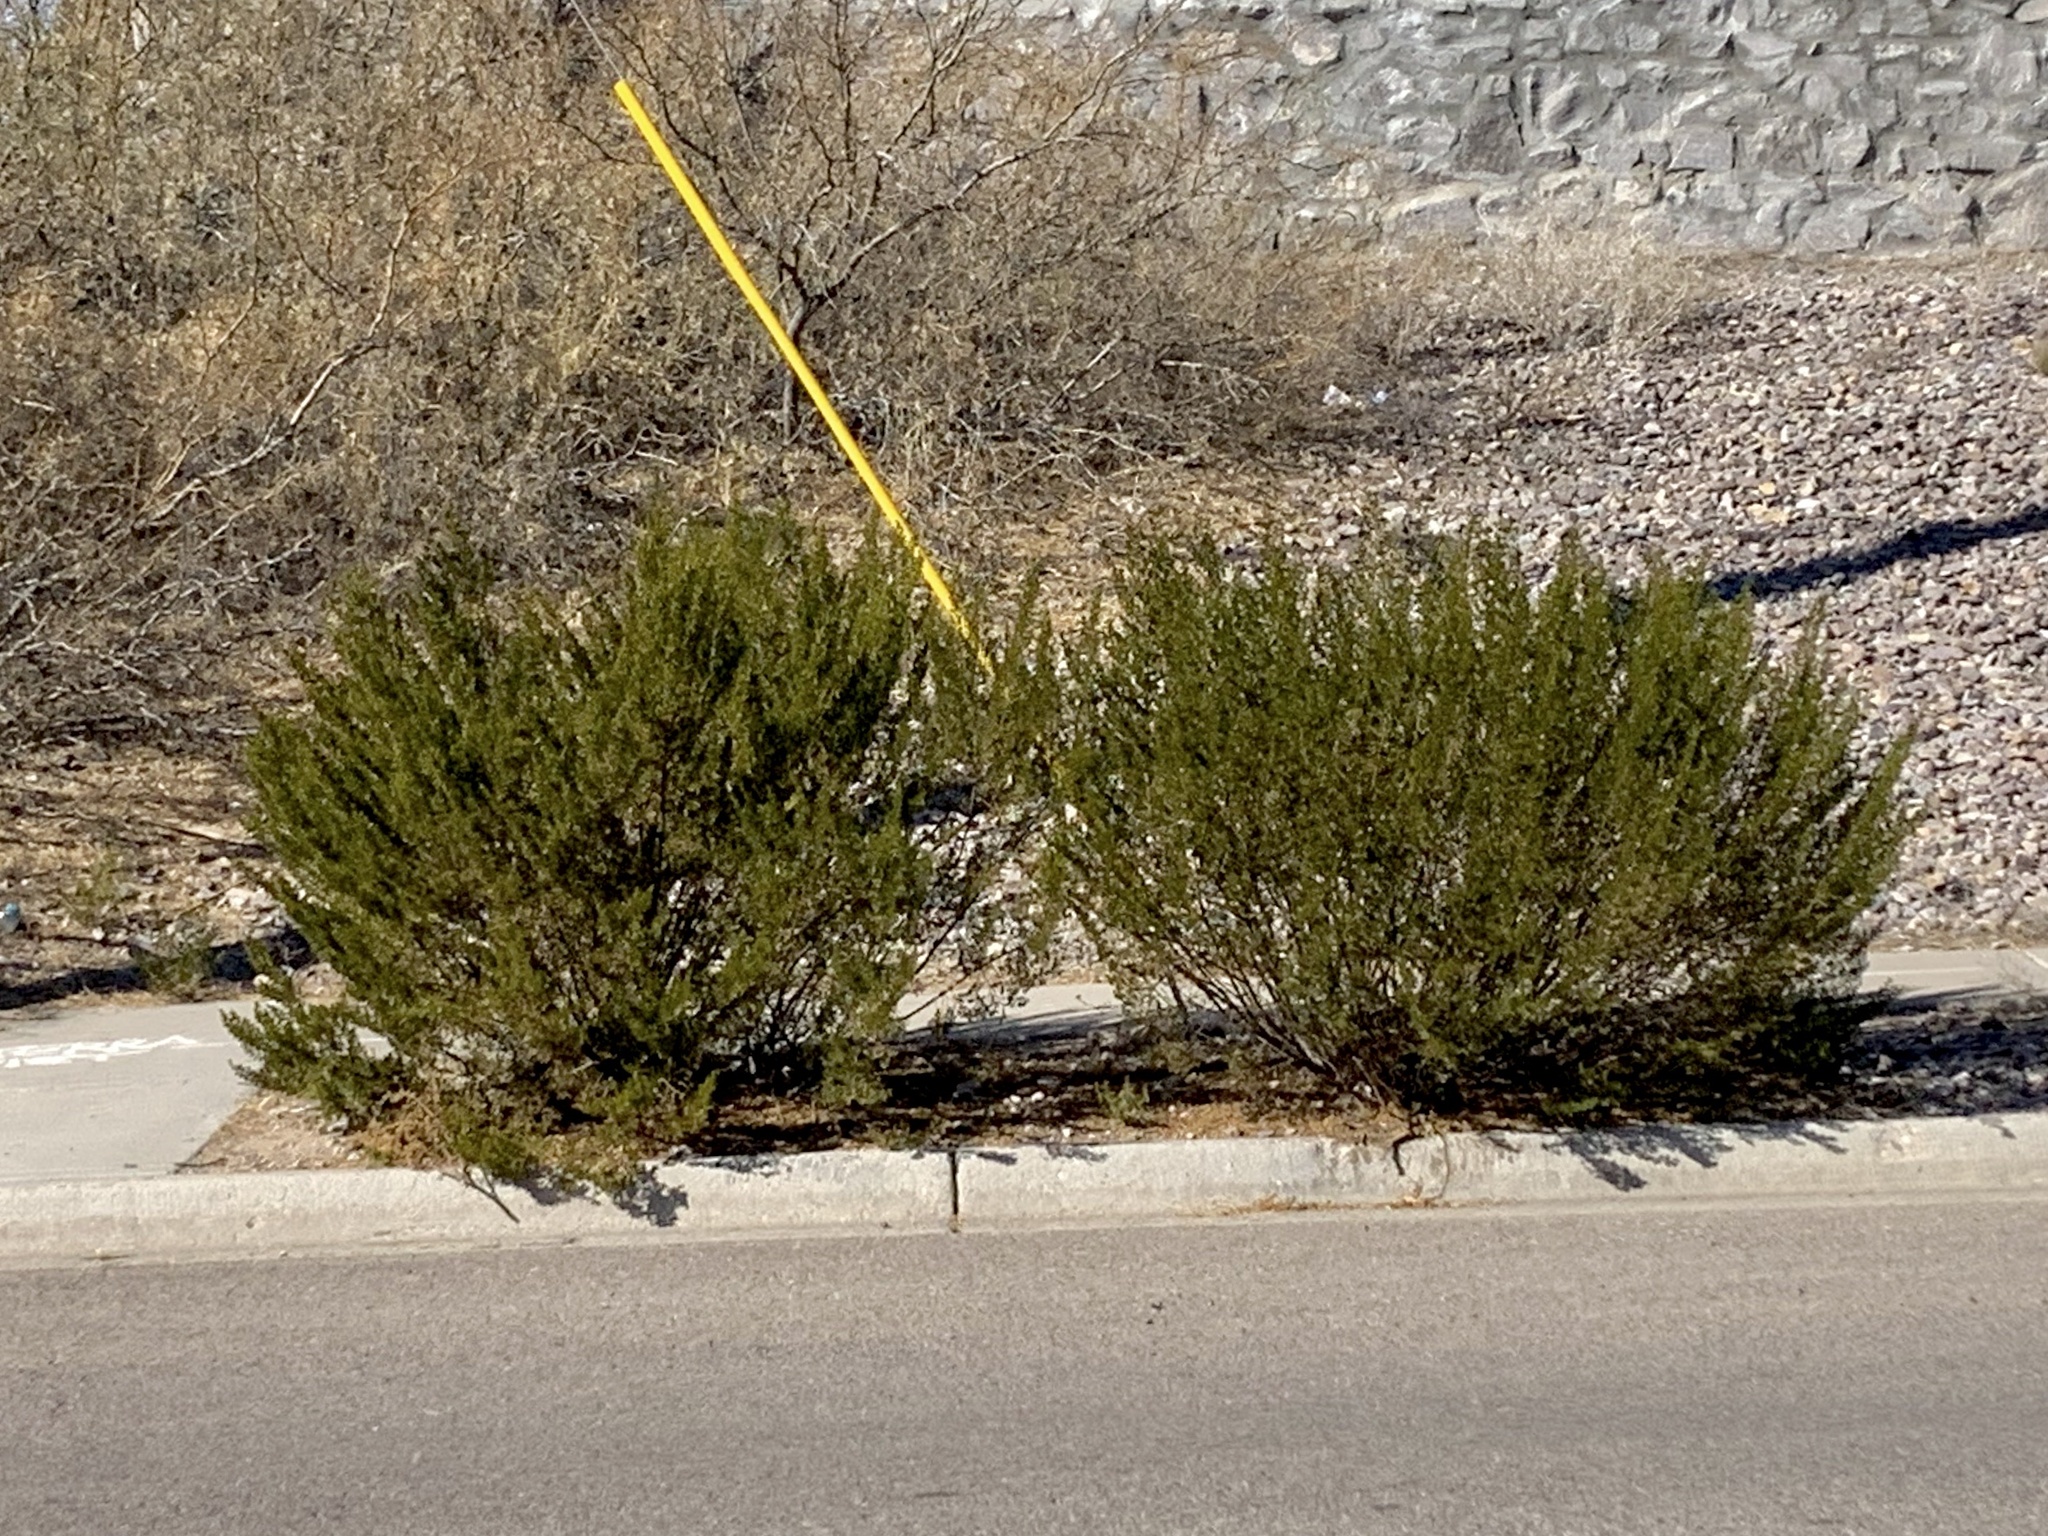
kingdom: Plantae
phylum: Tracheophyta
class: Magnoliopsida
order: Zygophyllales
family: Zygophyllaceae
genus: Larrea
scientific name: Larrea tridentata
